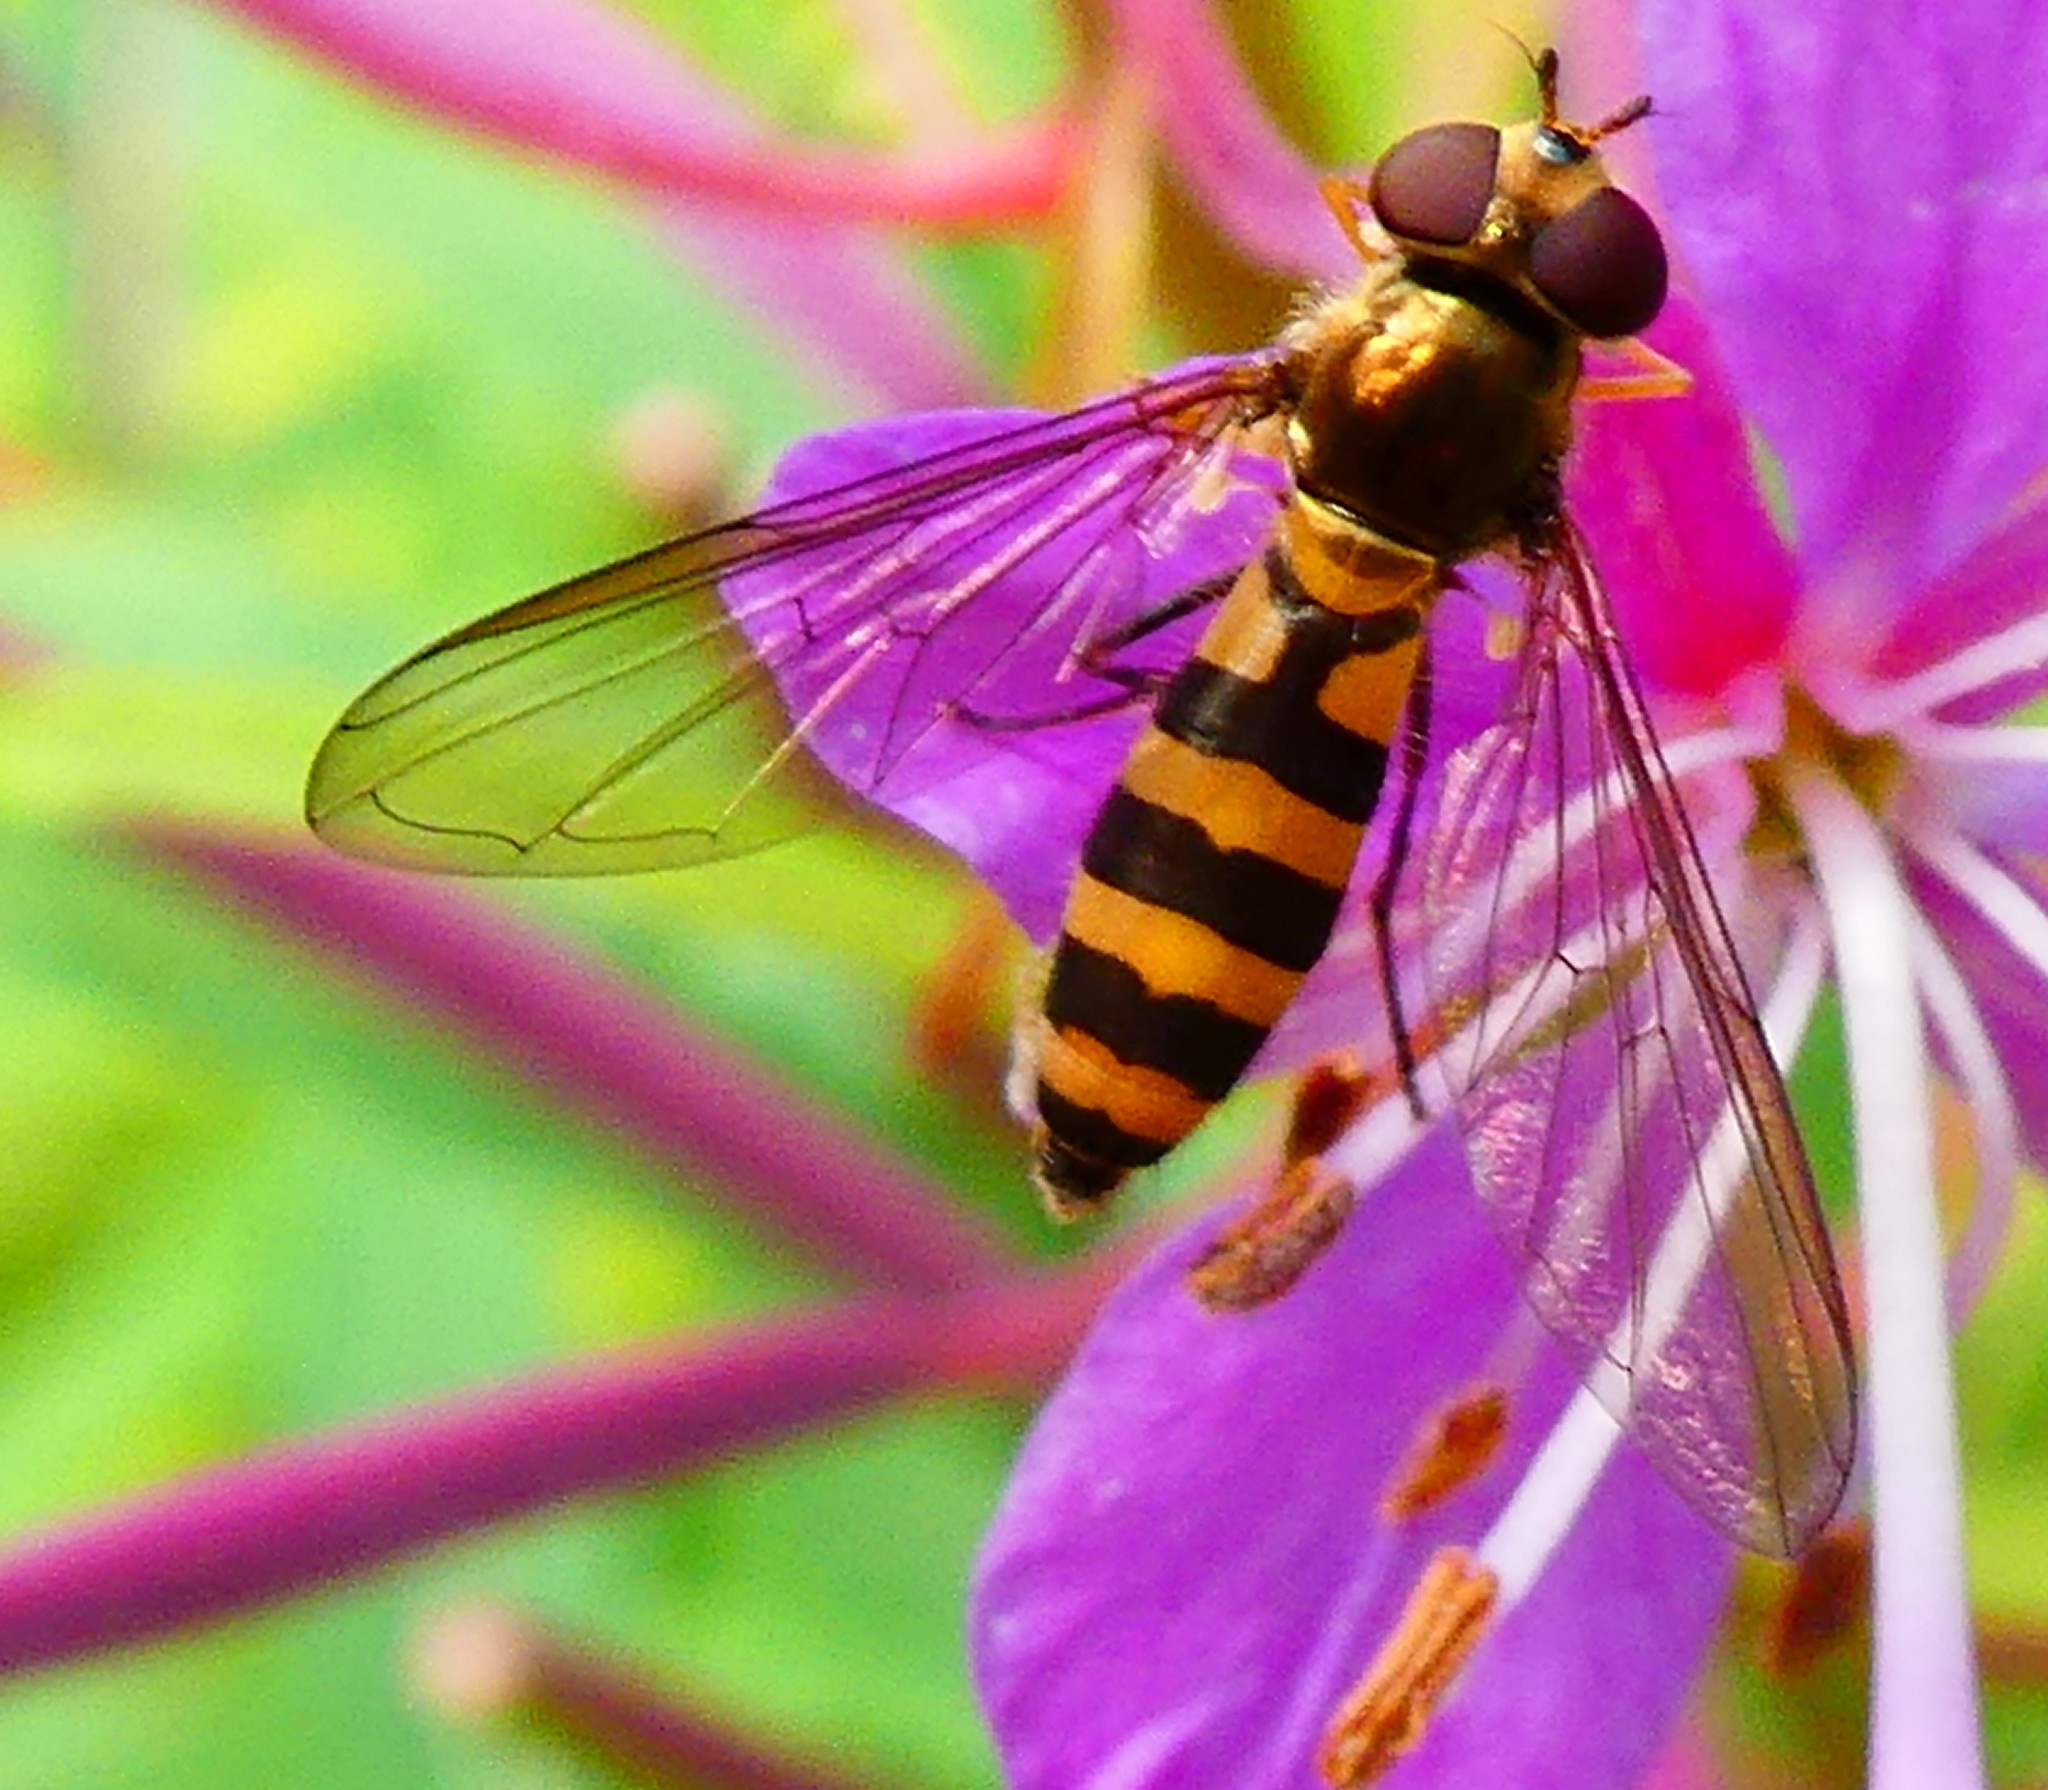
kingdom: Animalia
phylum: Arthropoda
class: Insecta
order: Diptera
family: Syrphidae
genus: Meliscaeva
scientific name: Meliscaeva cinctella
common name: American thintail fly
